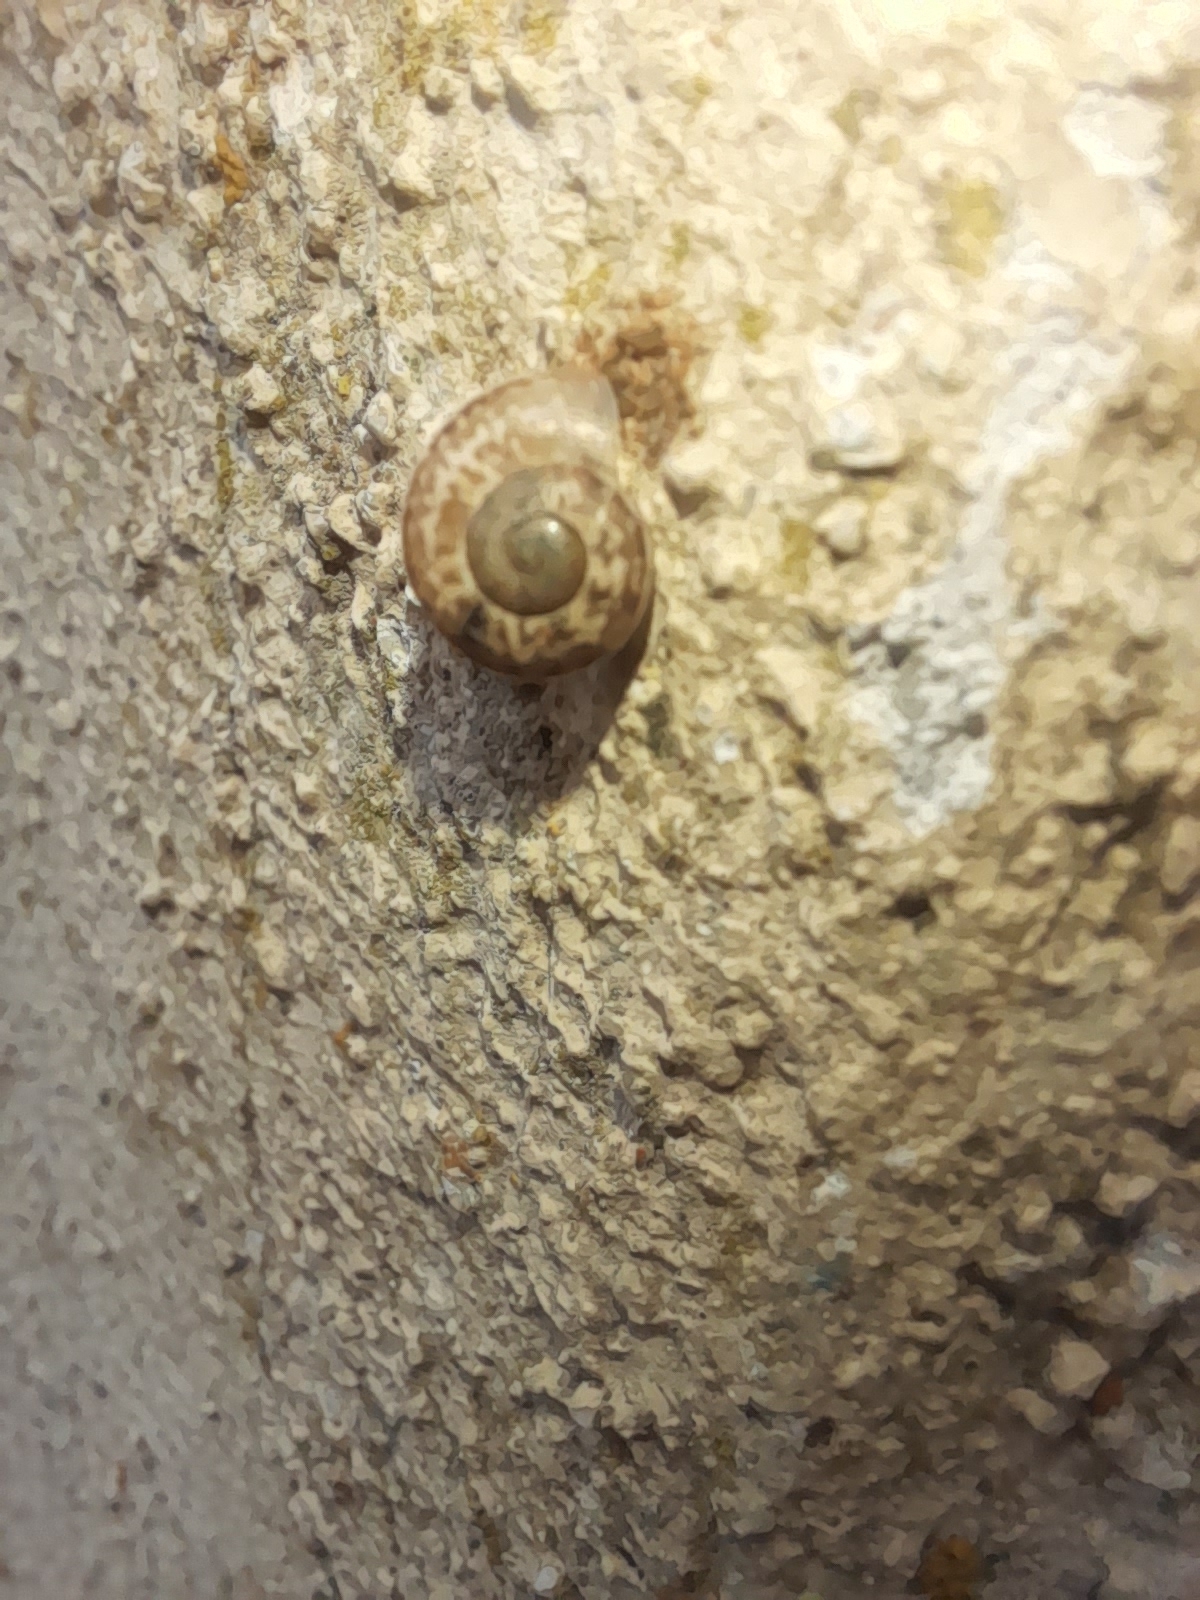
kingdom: Animalia
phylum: Mollusca
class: Gastropoda
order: Stylommatophora
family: Helicidae
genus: Eobania
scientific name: Eobania vermiculata
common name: Chocolateband snail
